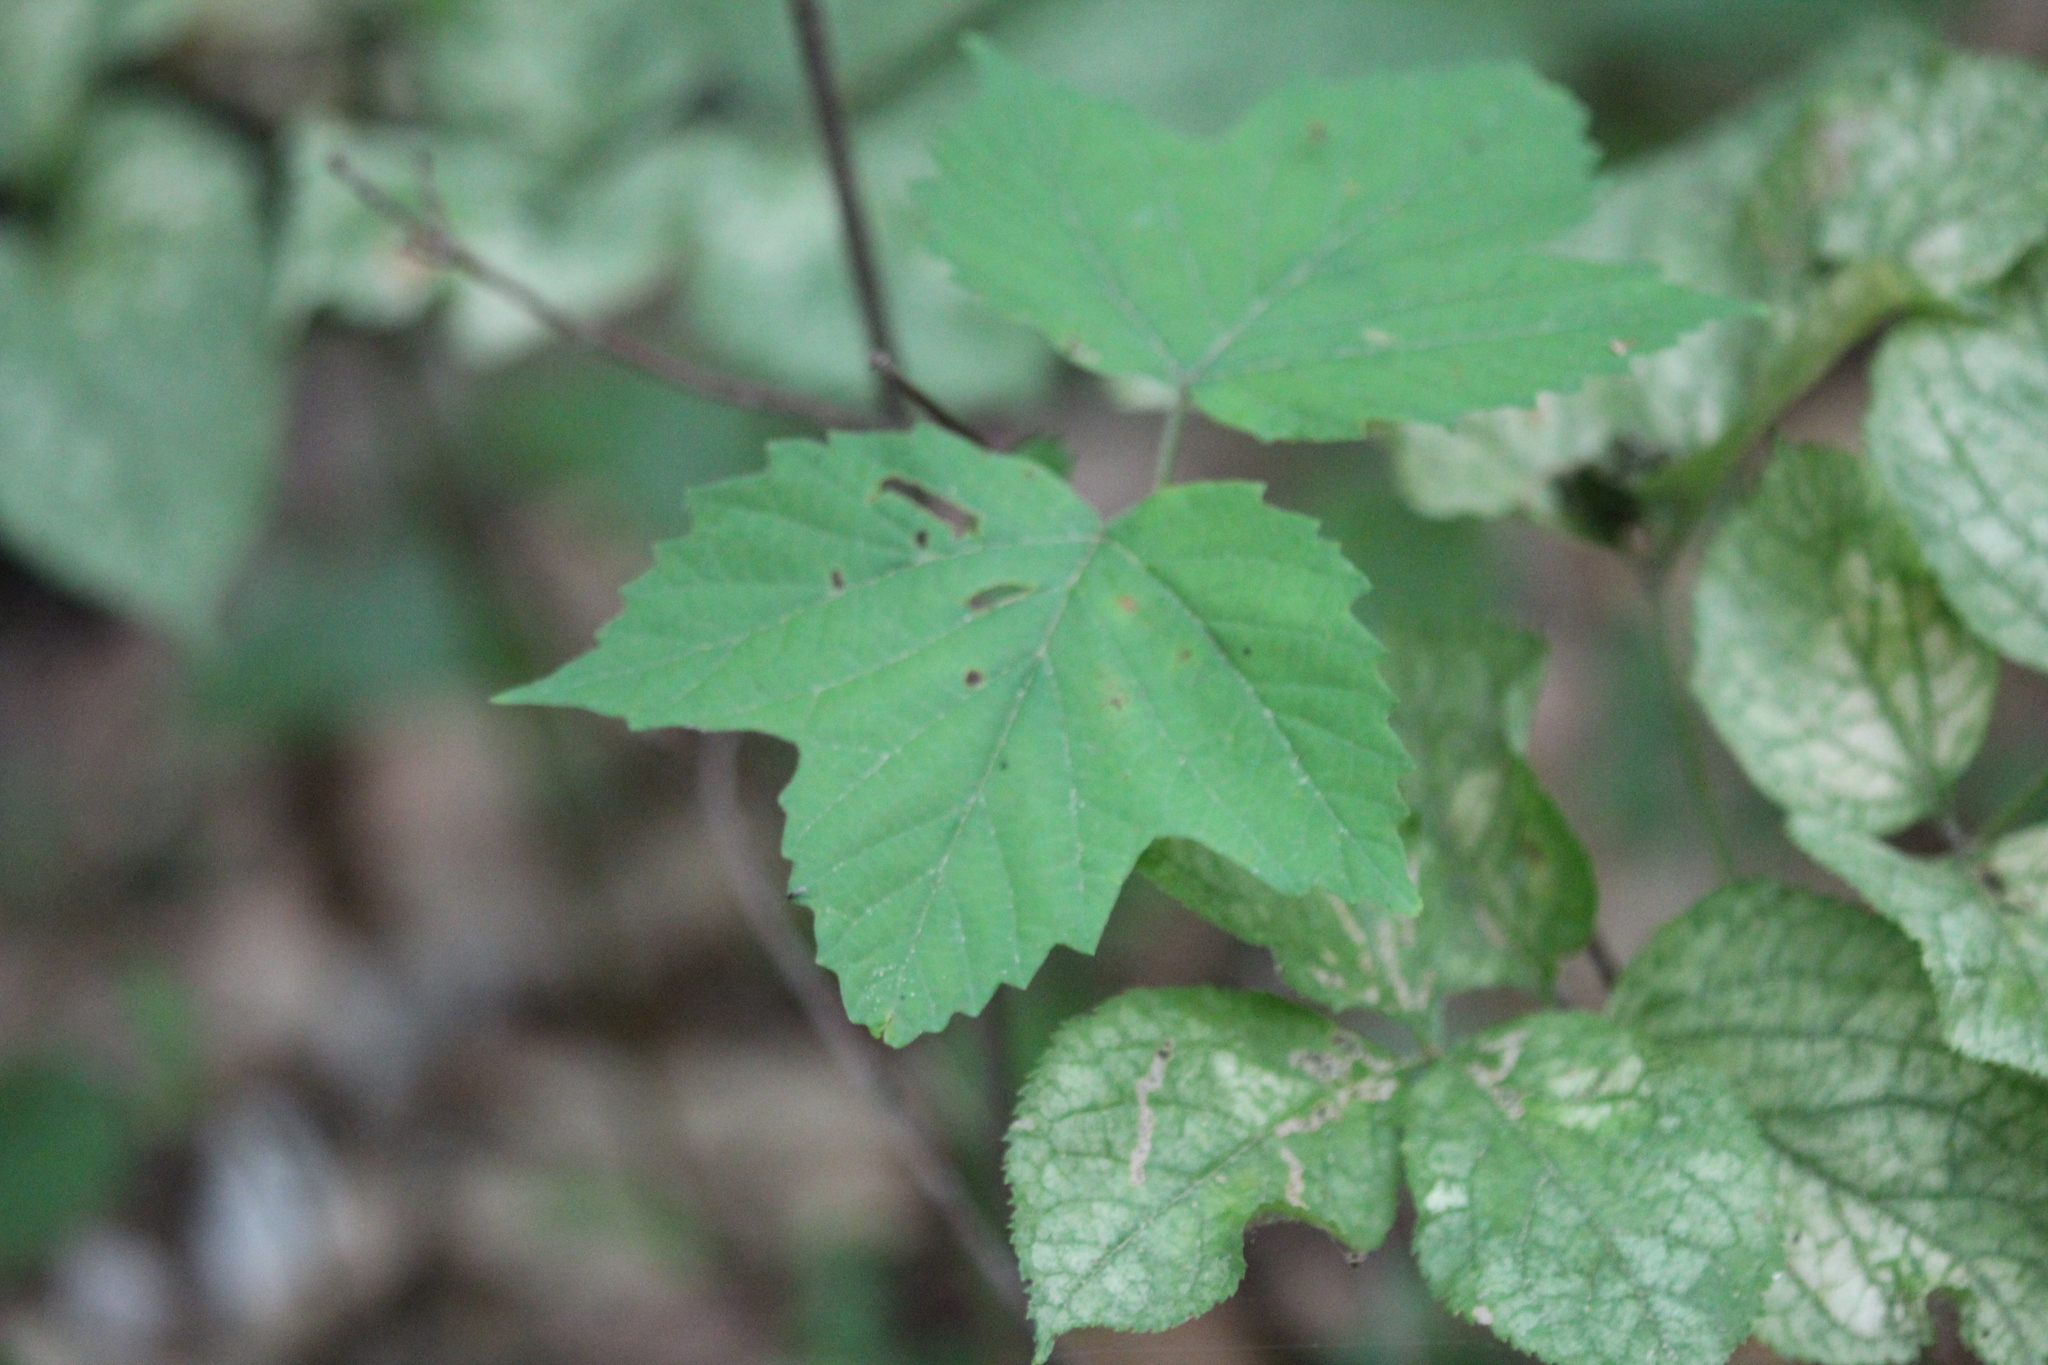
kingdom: Plantae
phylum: Tracheophyta
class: Magnoliopsida
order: Dipsacales
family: Viburnaceae
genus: Viburnum
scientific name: Viburnum acerifolium
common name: Dockmackie
